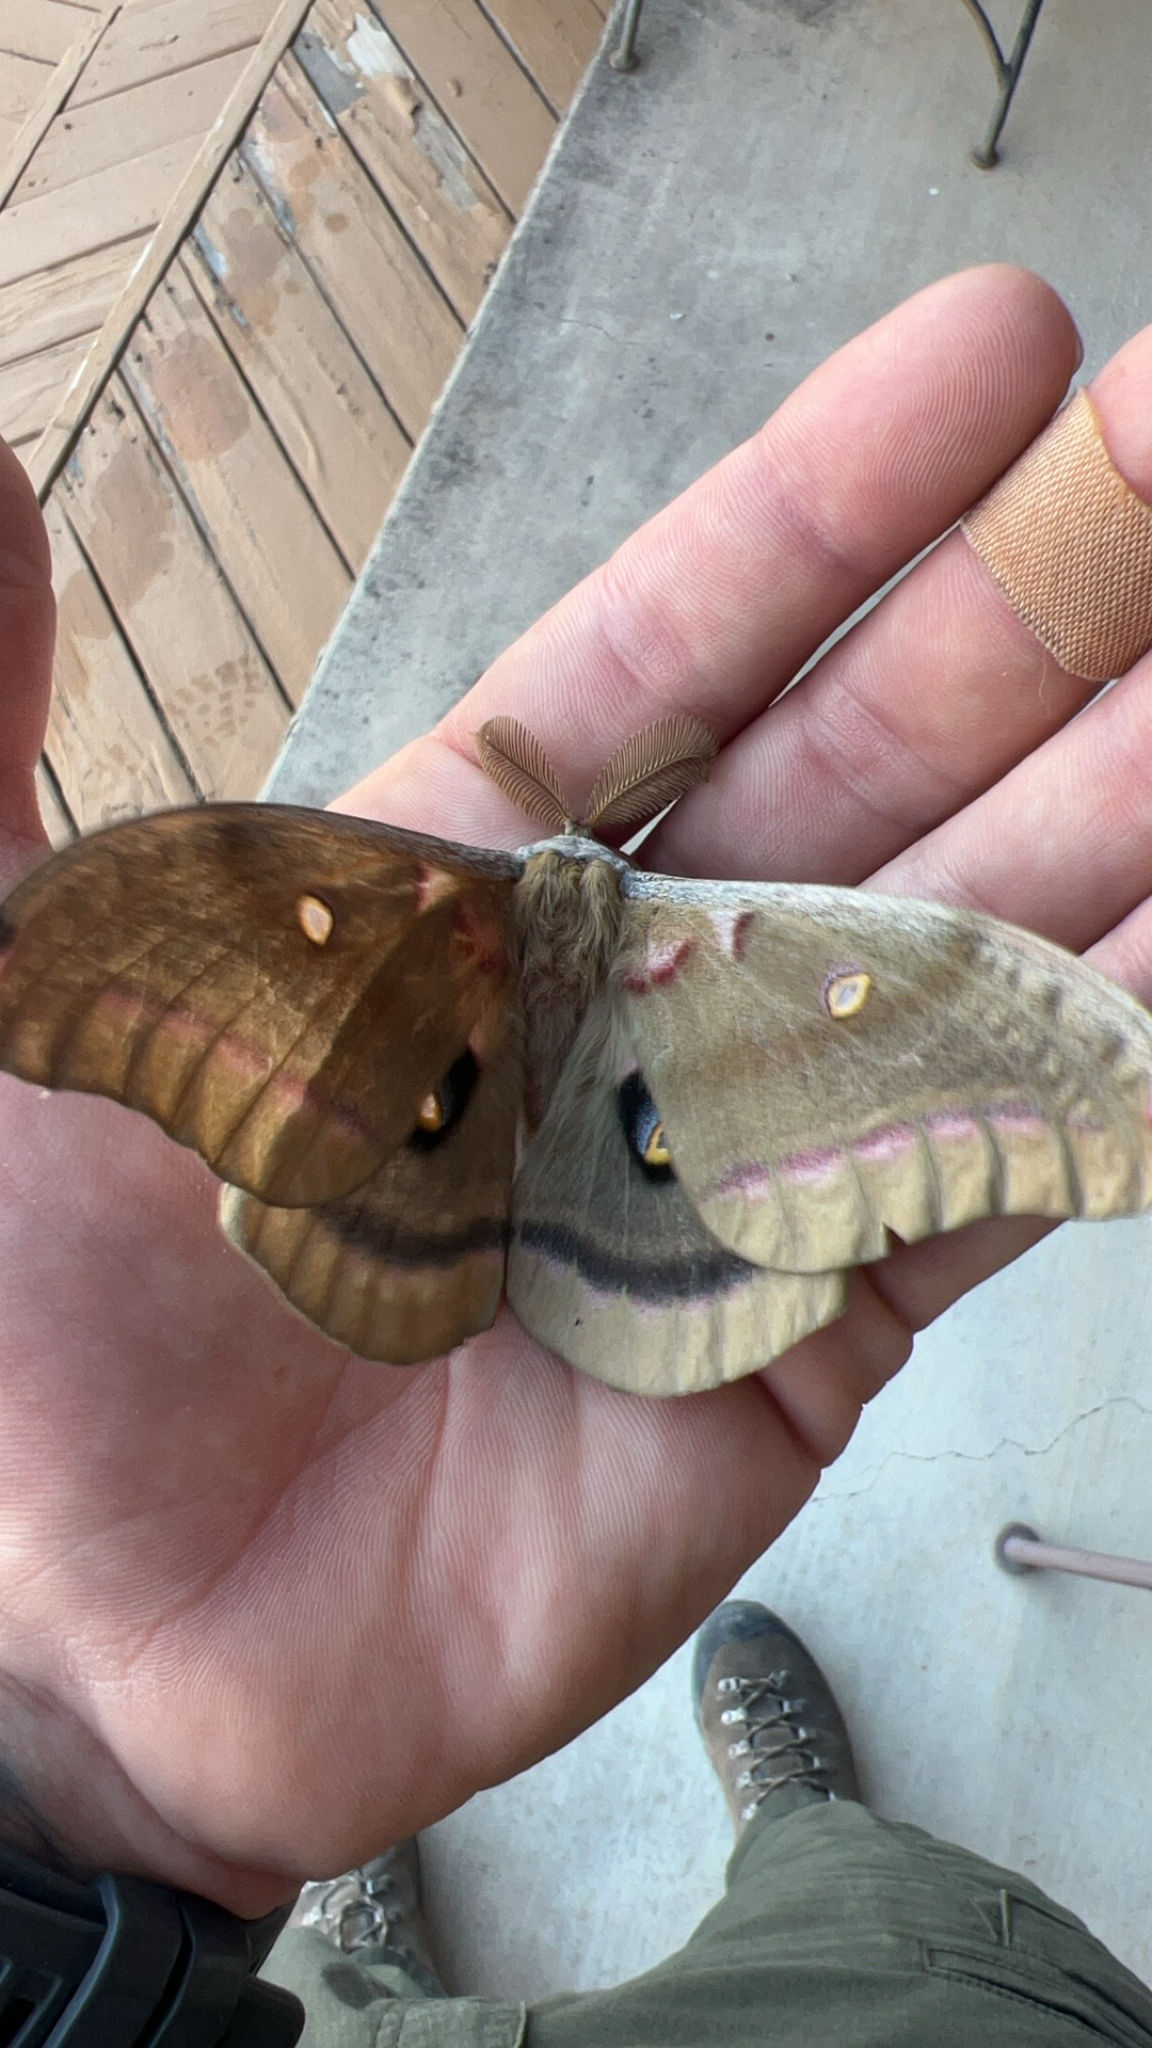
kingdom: Animalia
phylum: Arthropoda
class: Insecta
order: Lepidoptera
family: Saturniidae
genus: Antheraea
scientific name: Antheraea polyphemus
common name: Polyphemus moth
